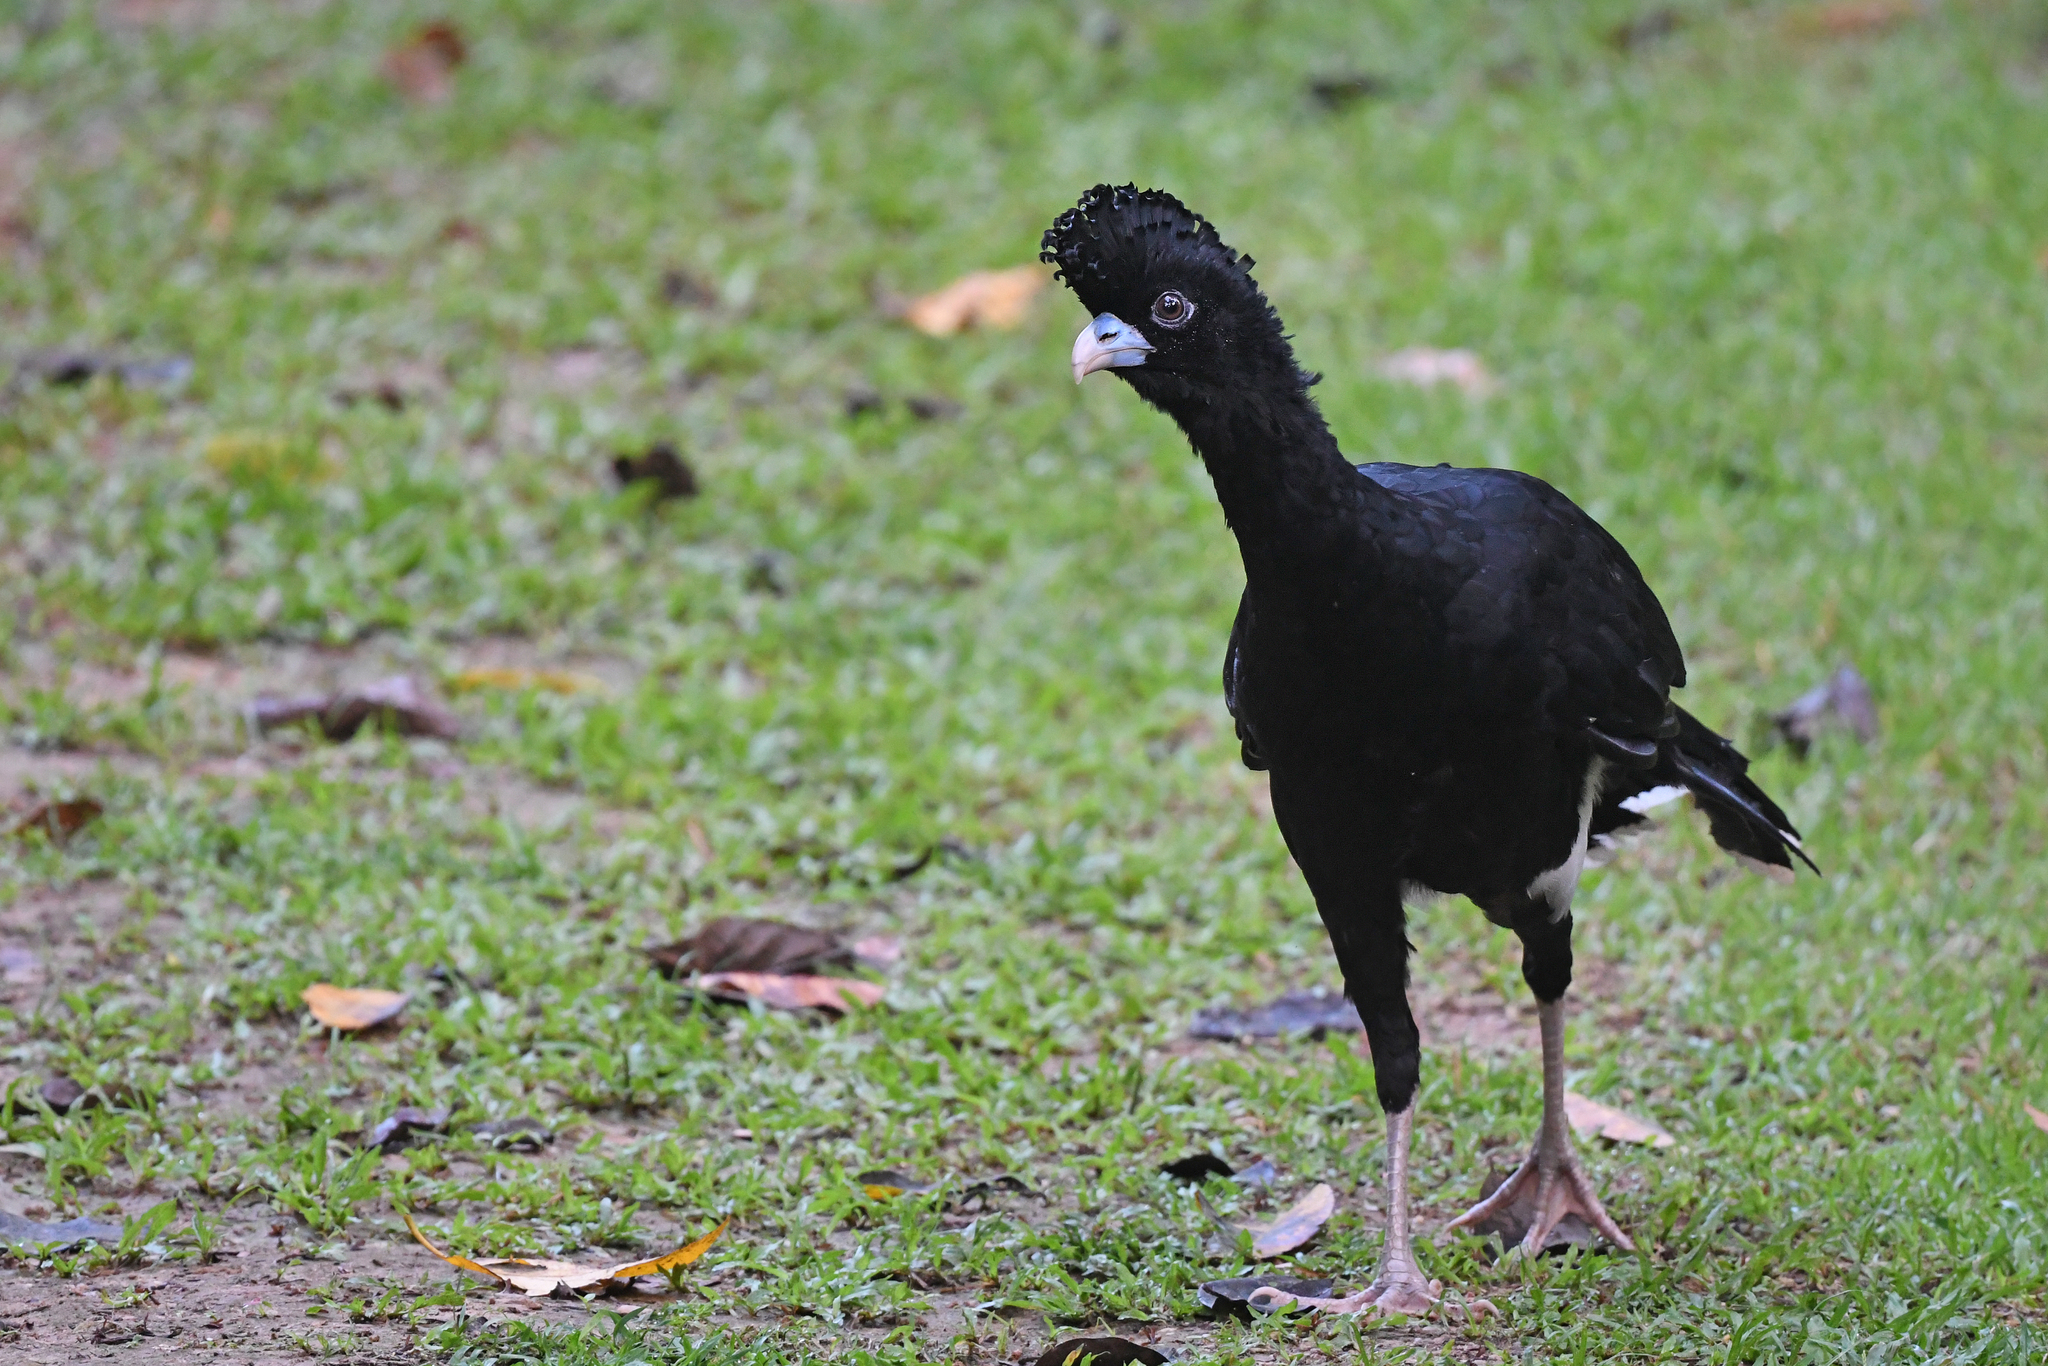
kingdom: Animalia
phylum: Chordata
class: Aves
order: Galliformes
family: Cracidae
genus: Crax
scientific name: Crax alberti
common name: Blue-billed curassow
